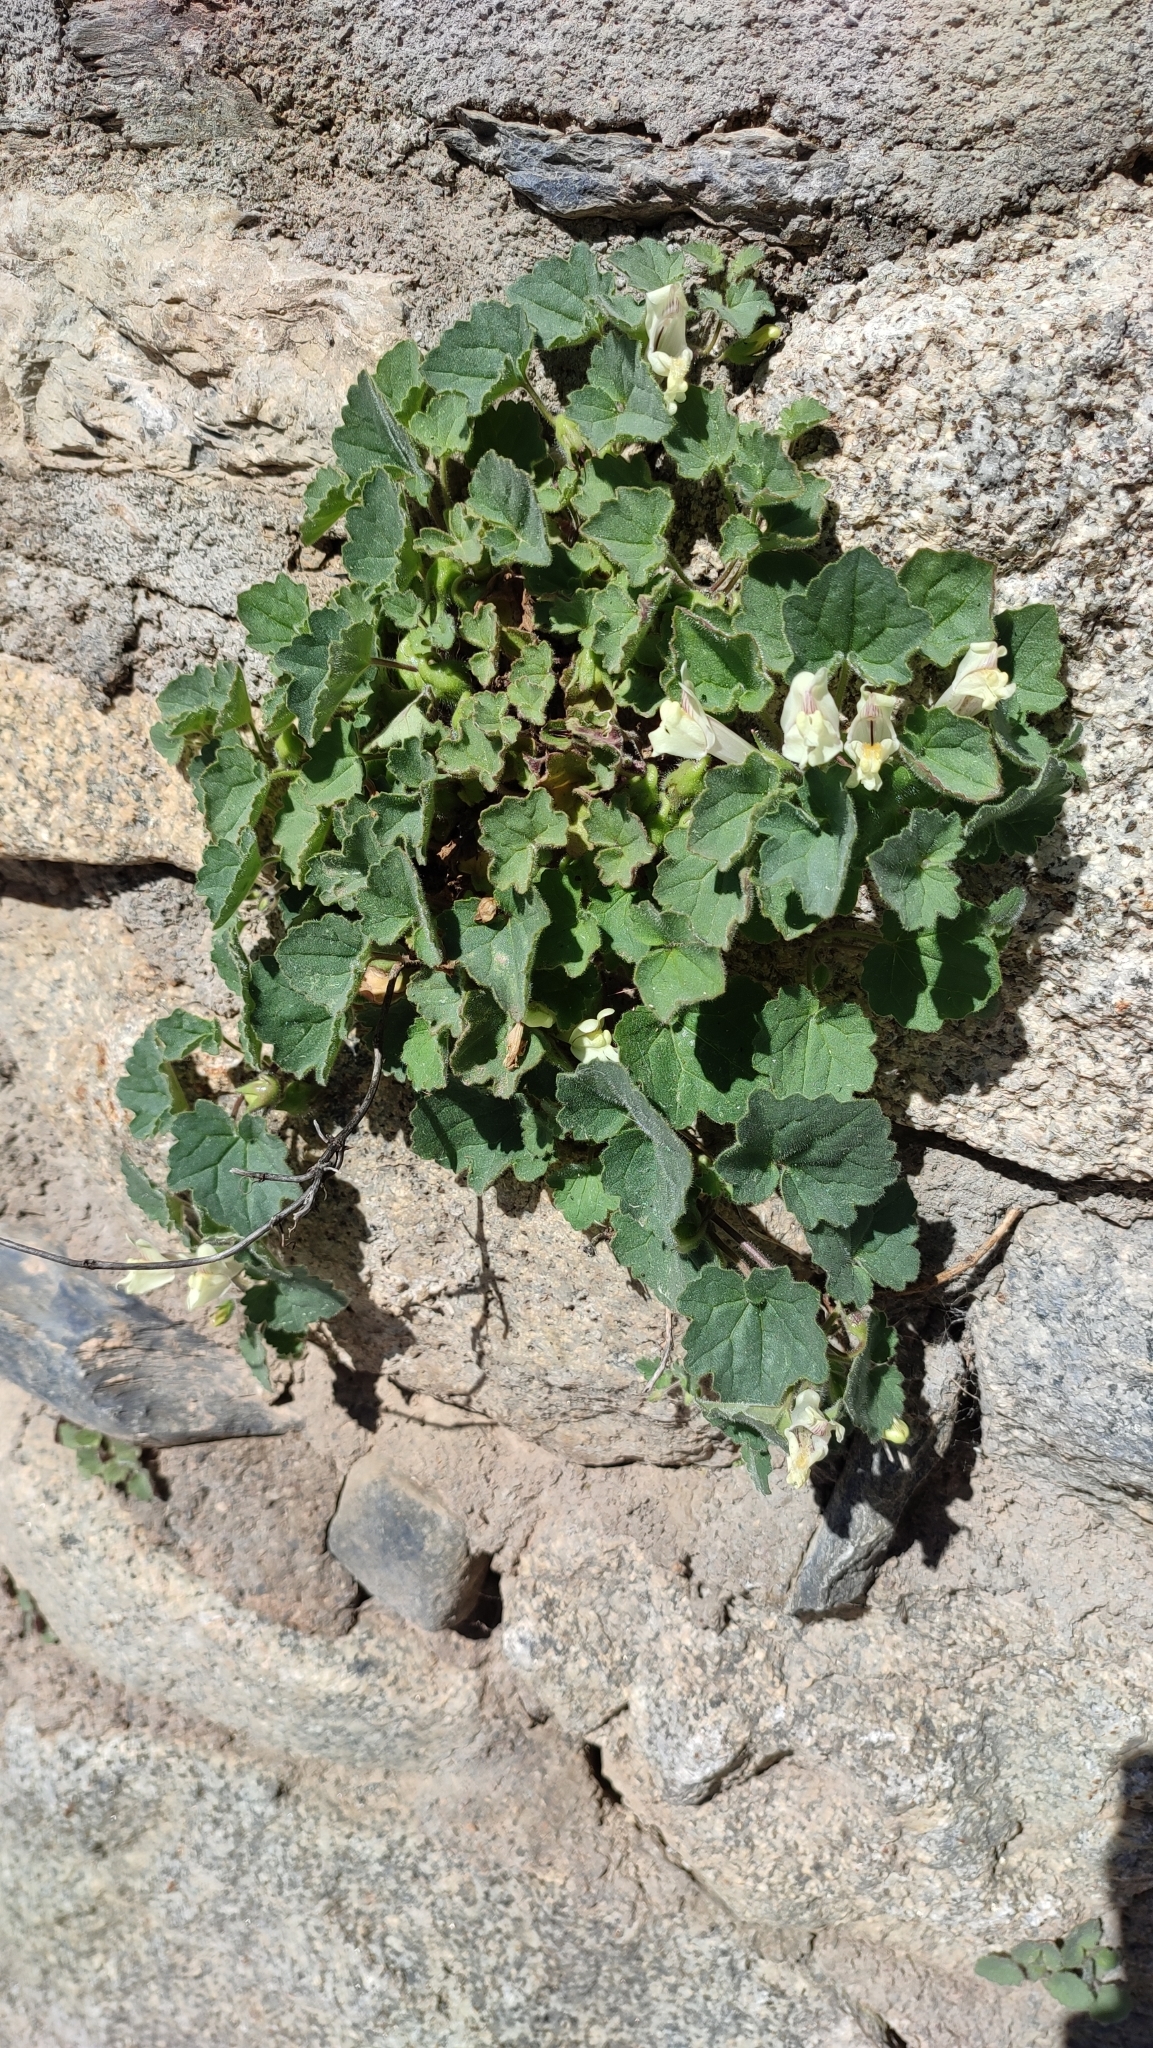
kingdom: Plantae
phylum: Tracheophyta
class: Magnoliopsida
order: Lamiales
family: Plantaginaceae
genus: Asarina
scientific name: Asarina procumbens
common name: Trailing snapdragon
